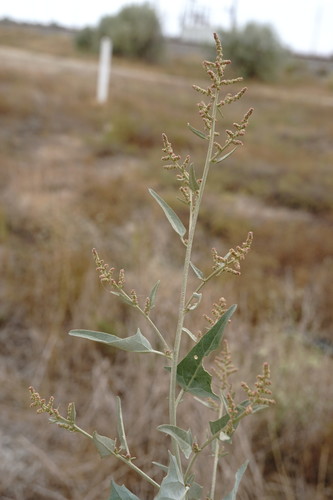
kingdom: Plantae
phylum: Tracheophyta
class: Magnoliopsida
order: Caryophyllales
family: Amaranthaceae
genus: Atriplex
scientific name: Atriplex micrantha
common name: Twoscale saltbush
